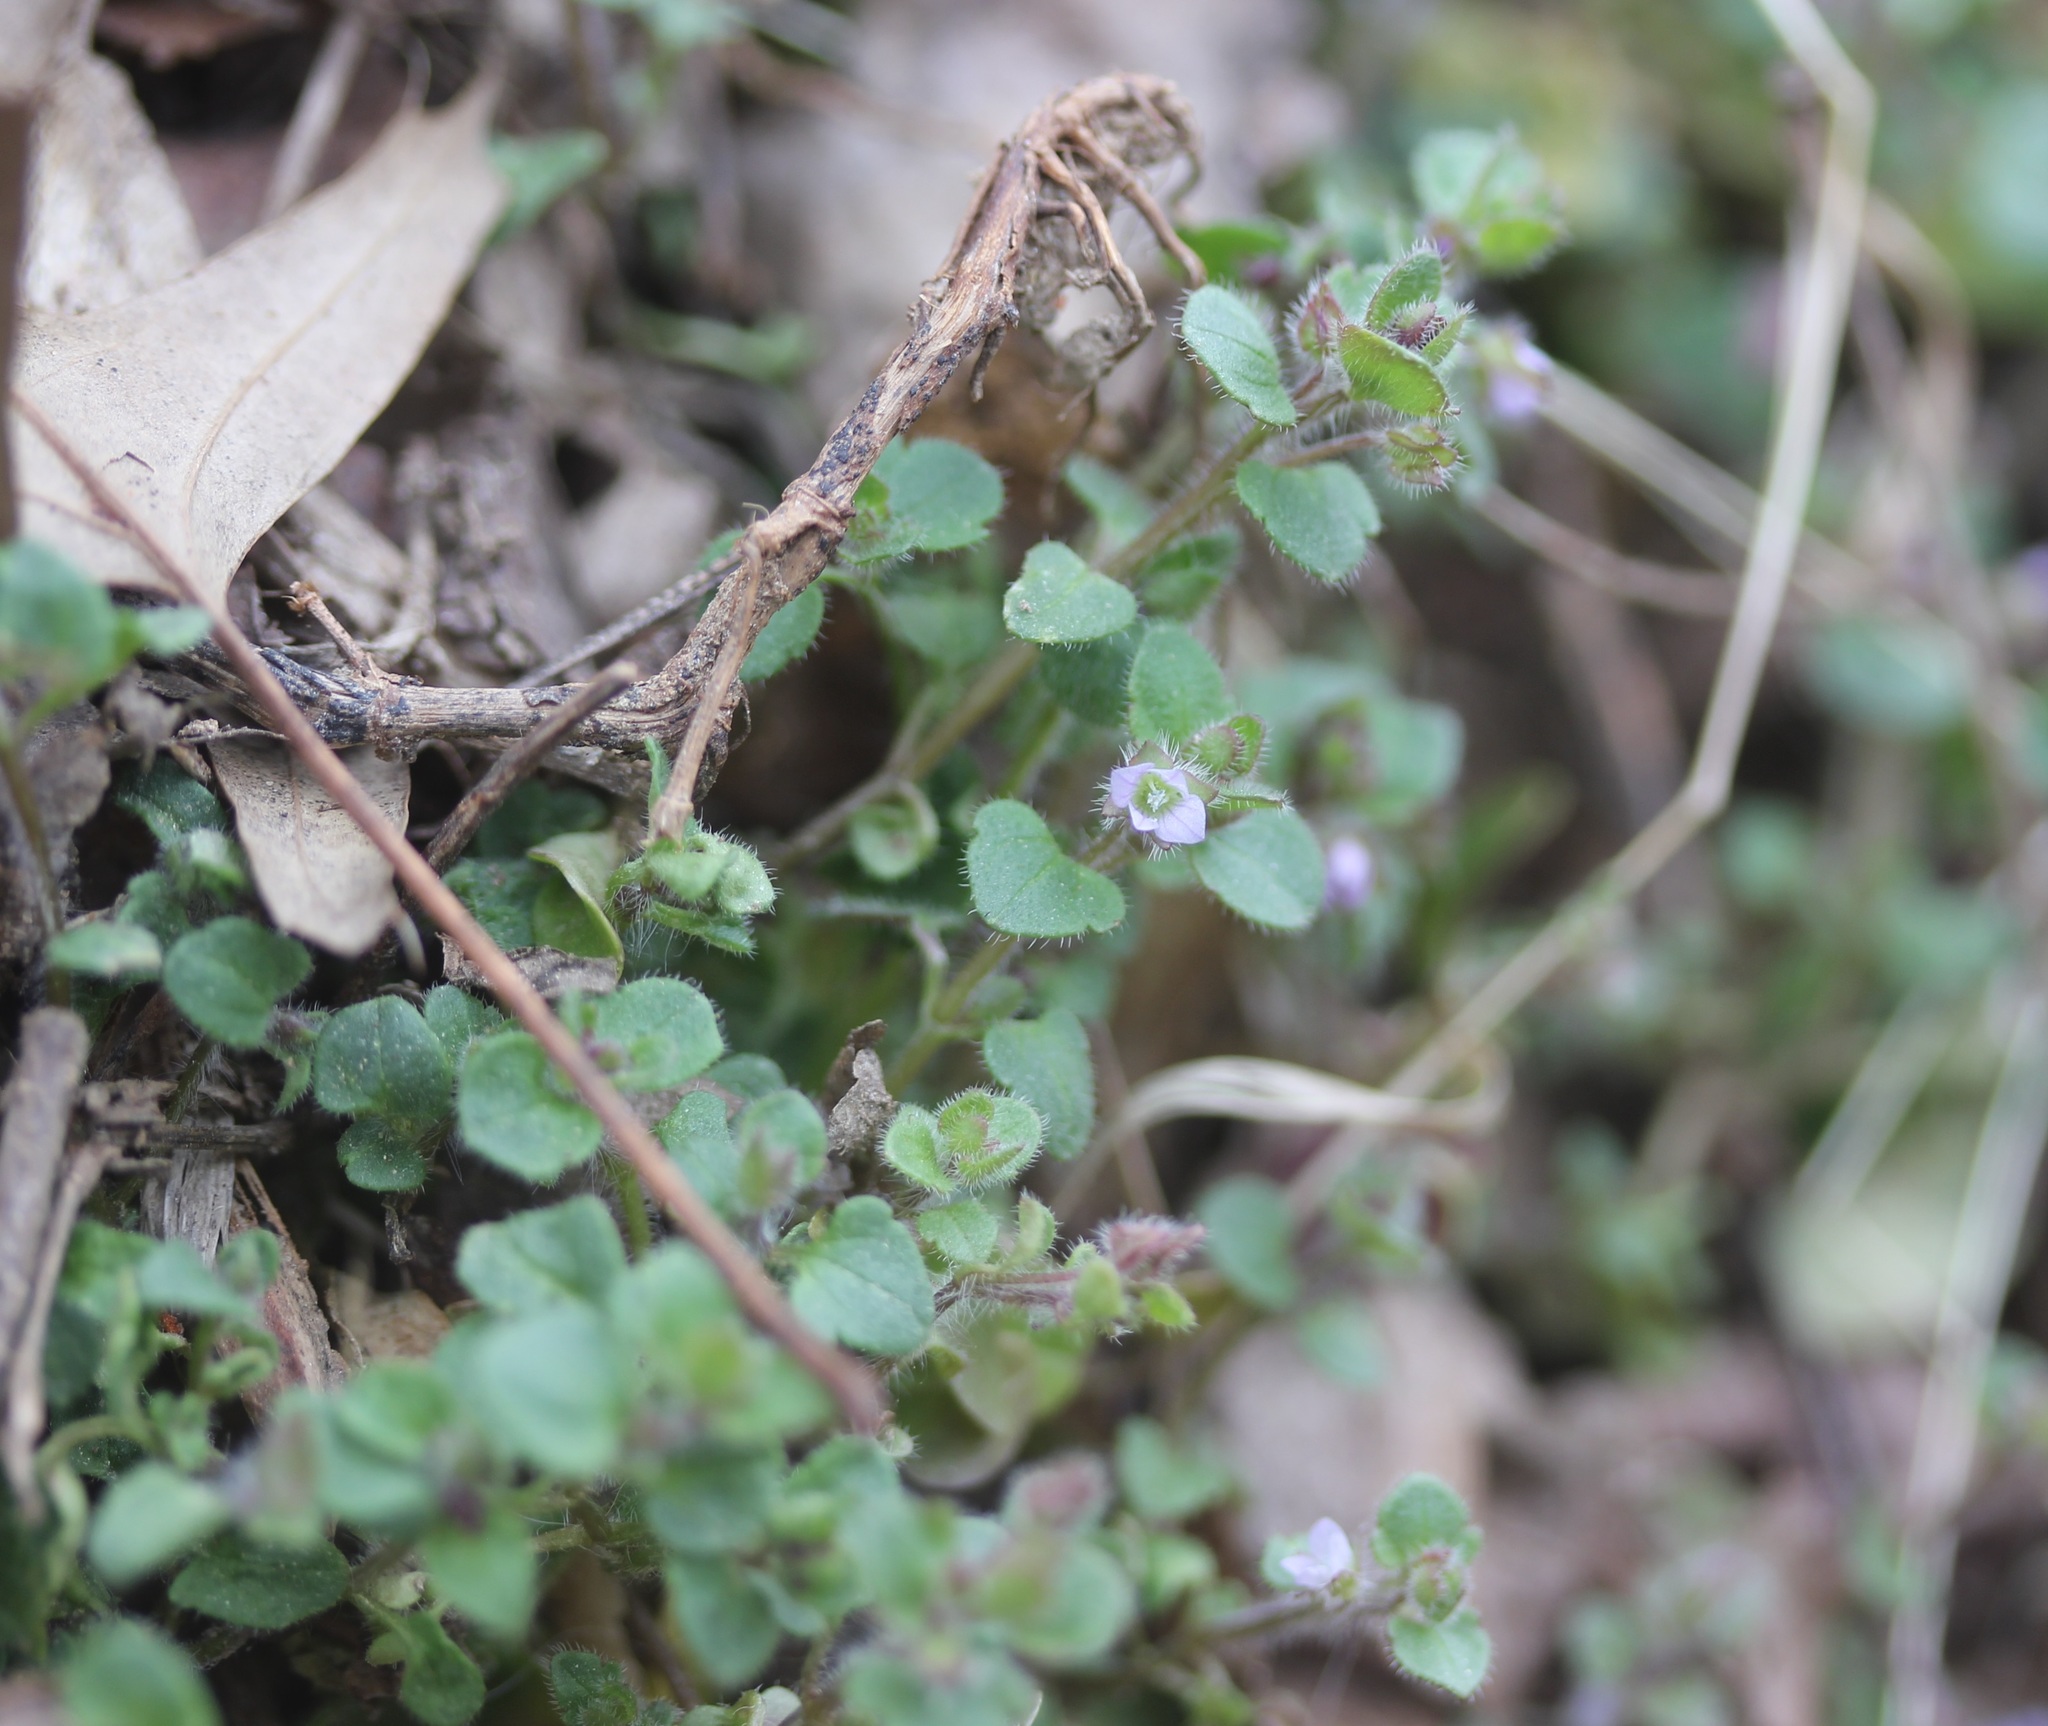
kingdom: Plantae
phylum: Tracheophyta
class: Magnoliopsida
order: Lamiales
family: Plantaginaceae
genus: Veronica
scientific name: Veronica sublobata
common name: False ivy-leaved speedwell
